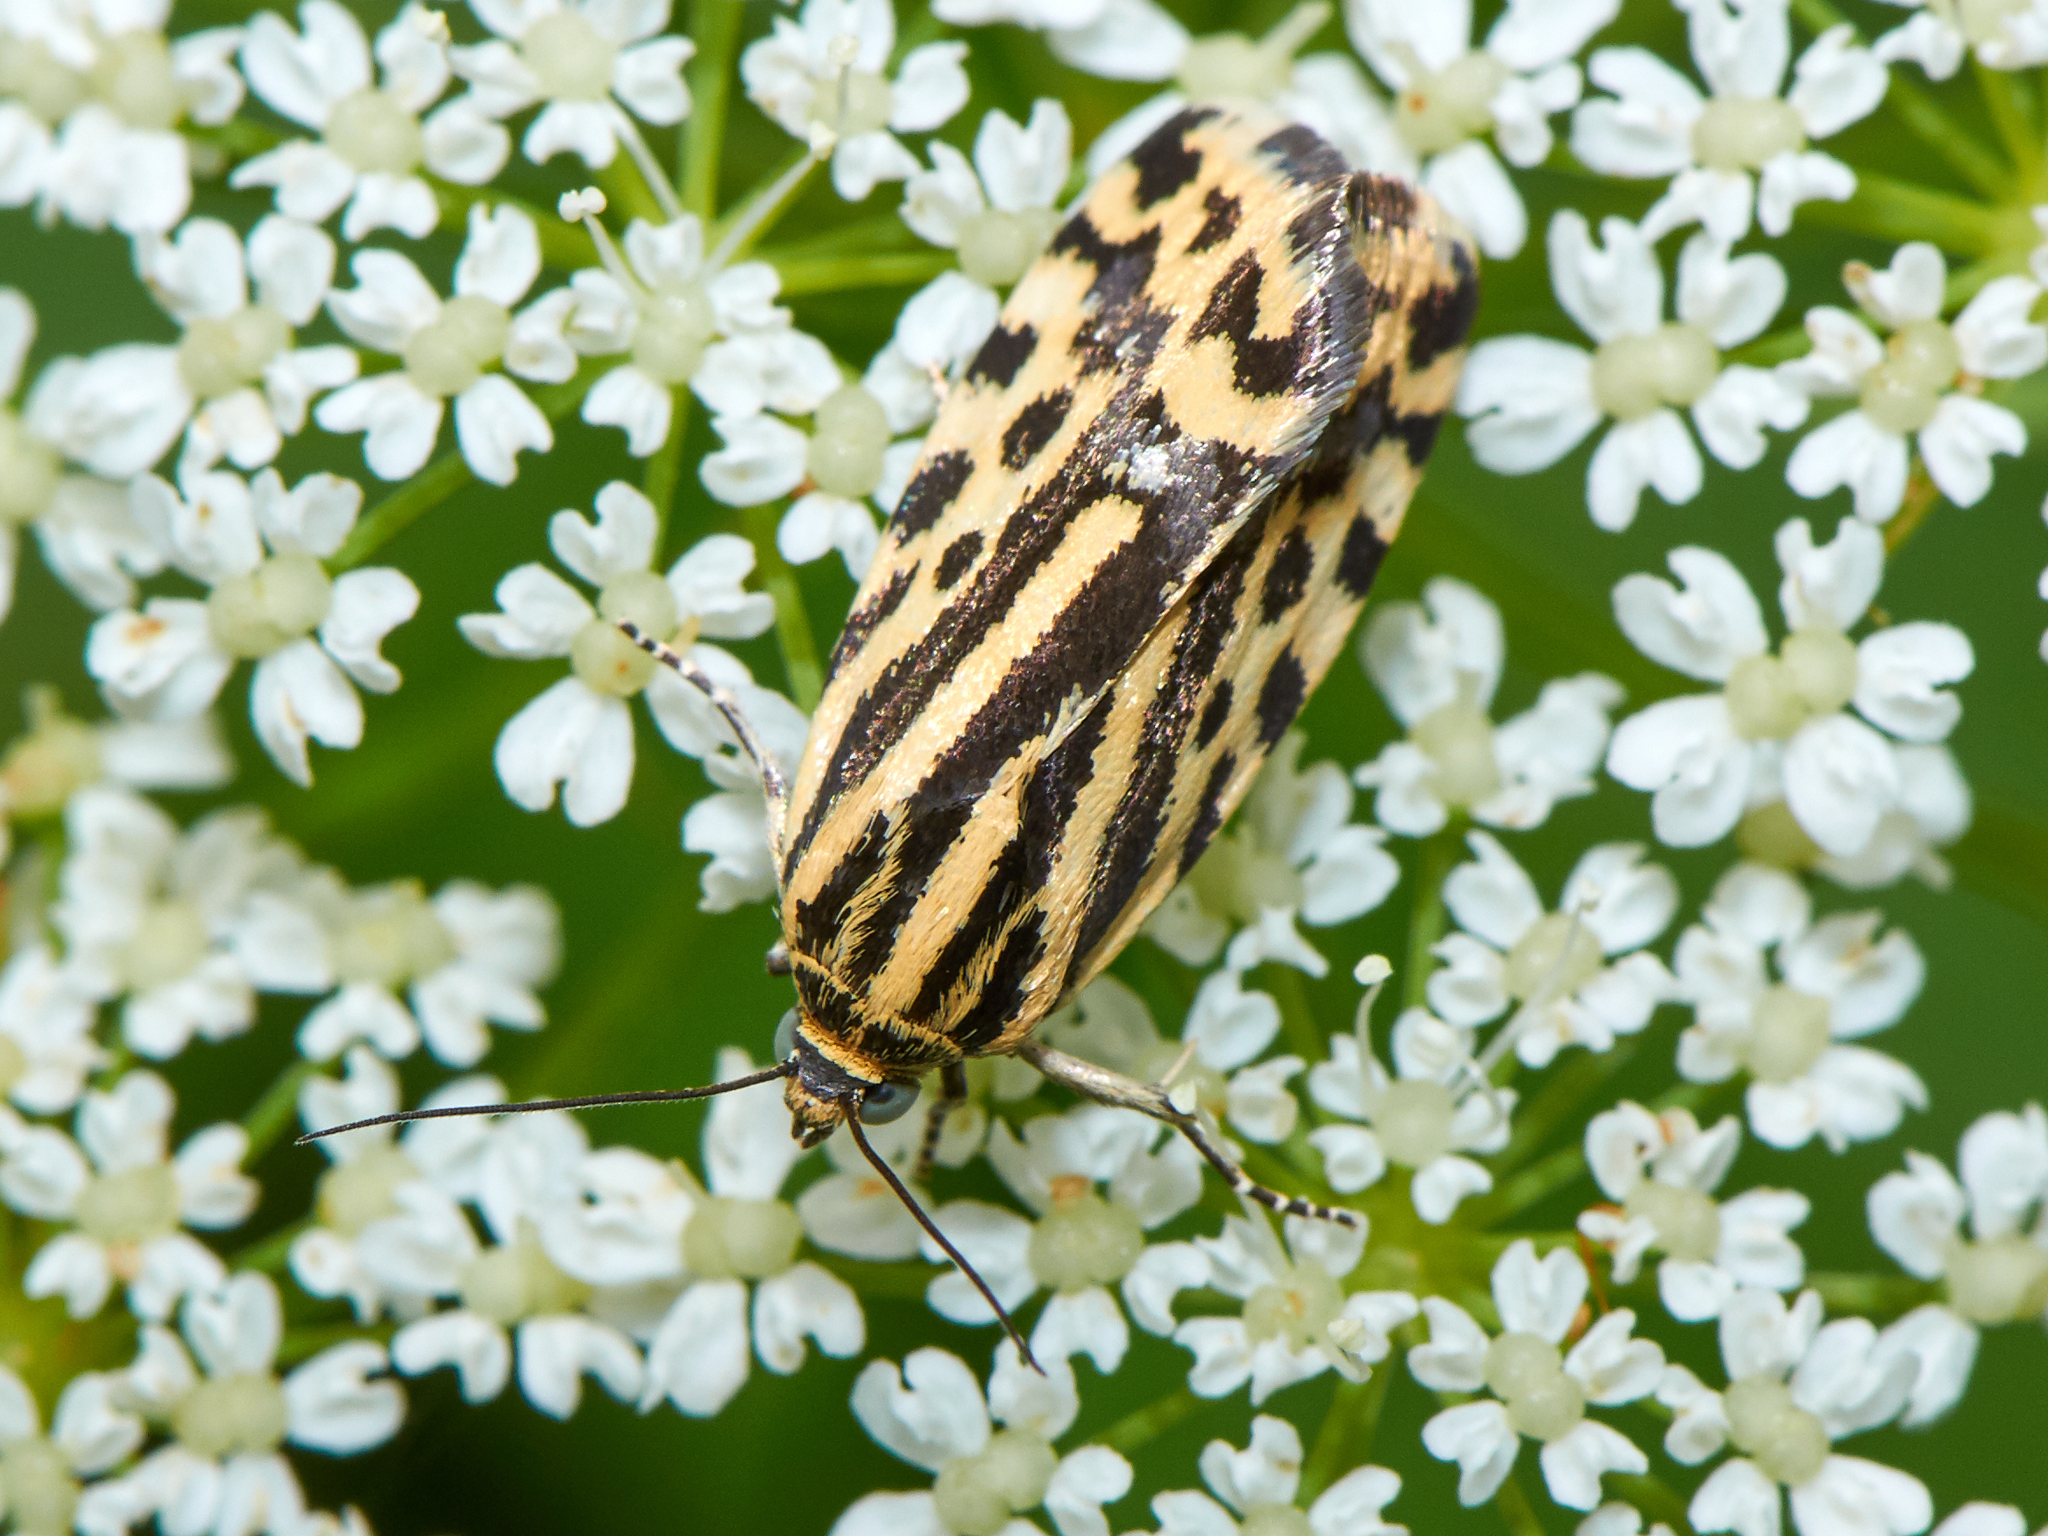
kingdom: Animalia
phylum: Arthropoda
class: Insecta
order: Lepidoptera
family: Noctuidae
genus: Acontia
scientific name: Acontia trabealis
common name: Spotted sulphur
